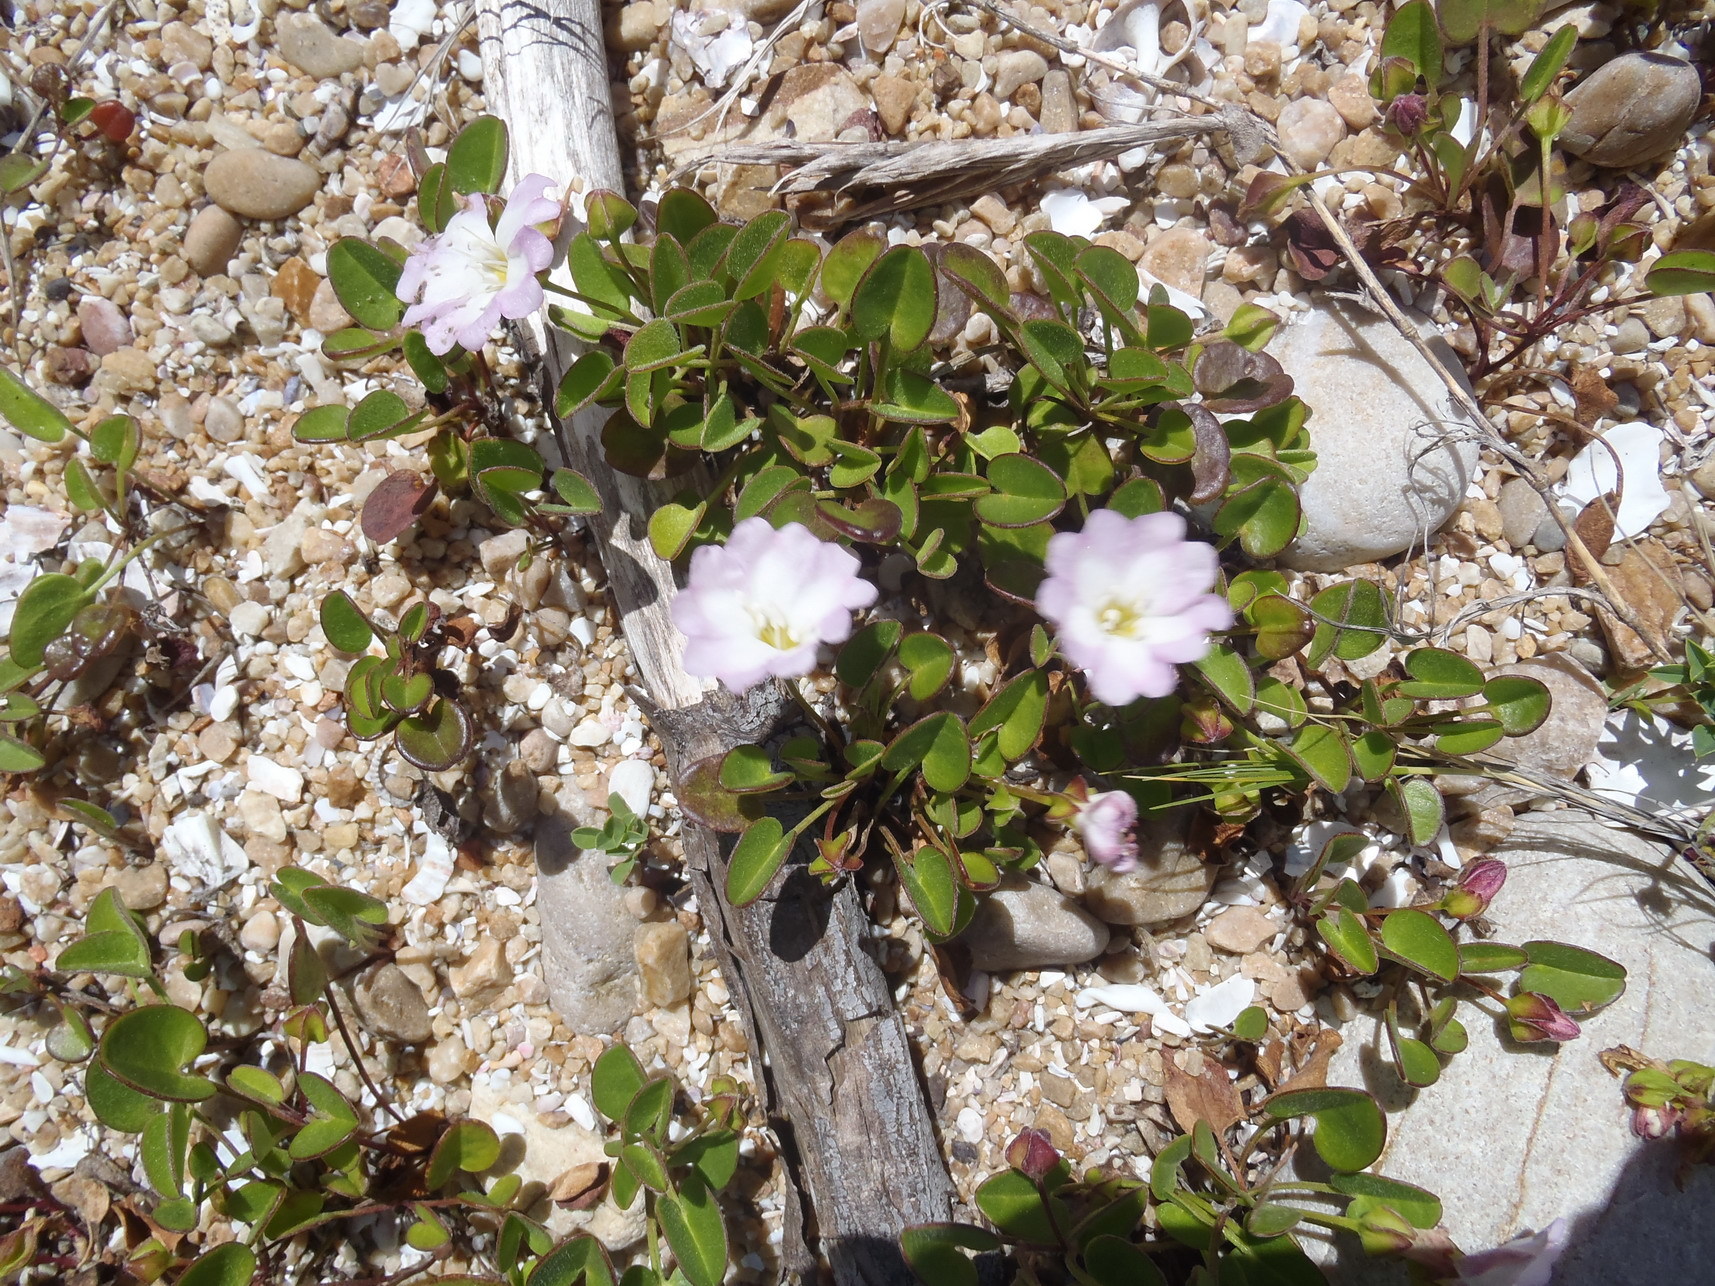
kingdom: Plantae
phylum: Tracheophyta
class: Magnoliopsida
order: Solanales
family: Convolvulaceae
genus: Falkia
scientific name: Falkia repens
